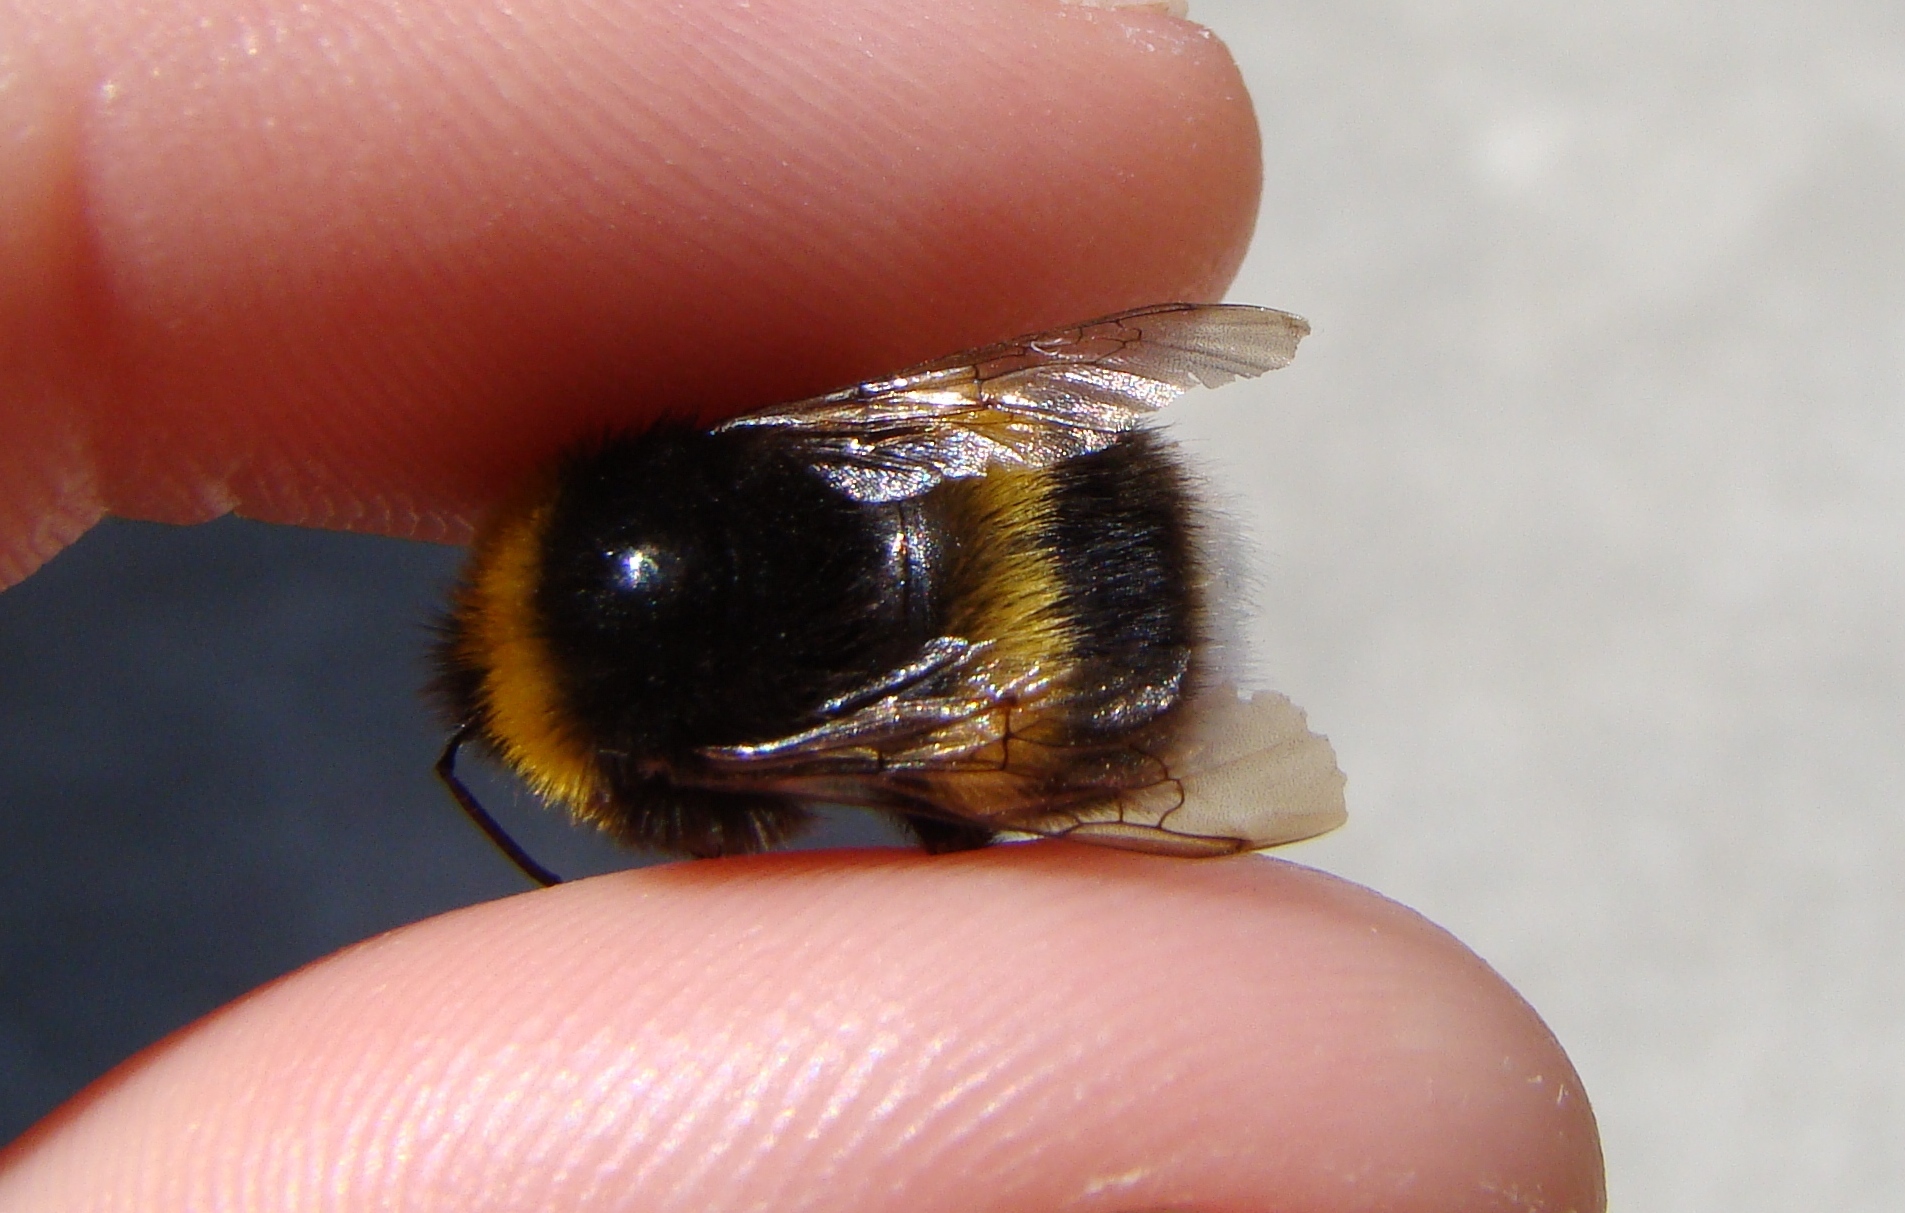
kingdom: Animalia
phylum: Arthropoda
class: Insecta
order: Hymenoptera
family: Apidae
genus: Bombus
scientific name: Bombus terrestris
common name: Buff-tailed bumblebee
